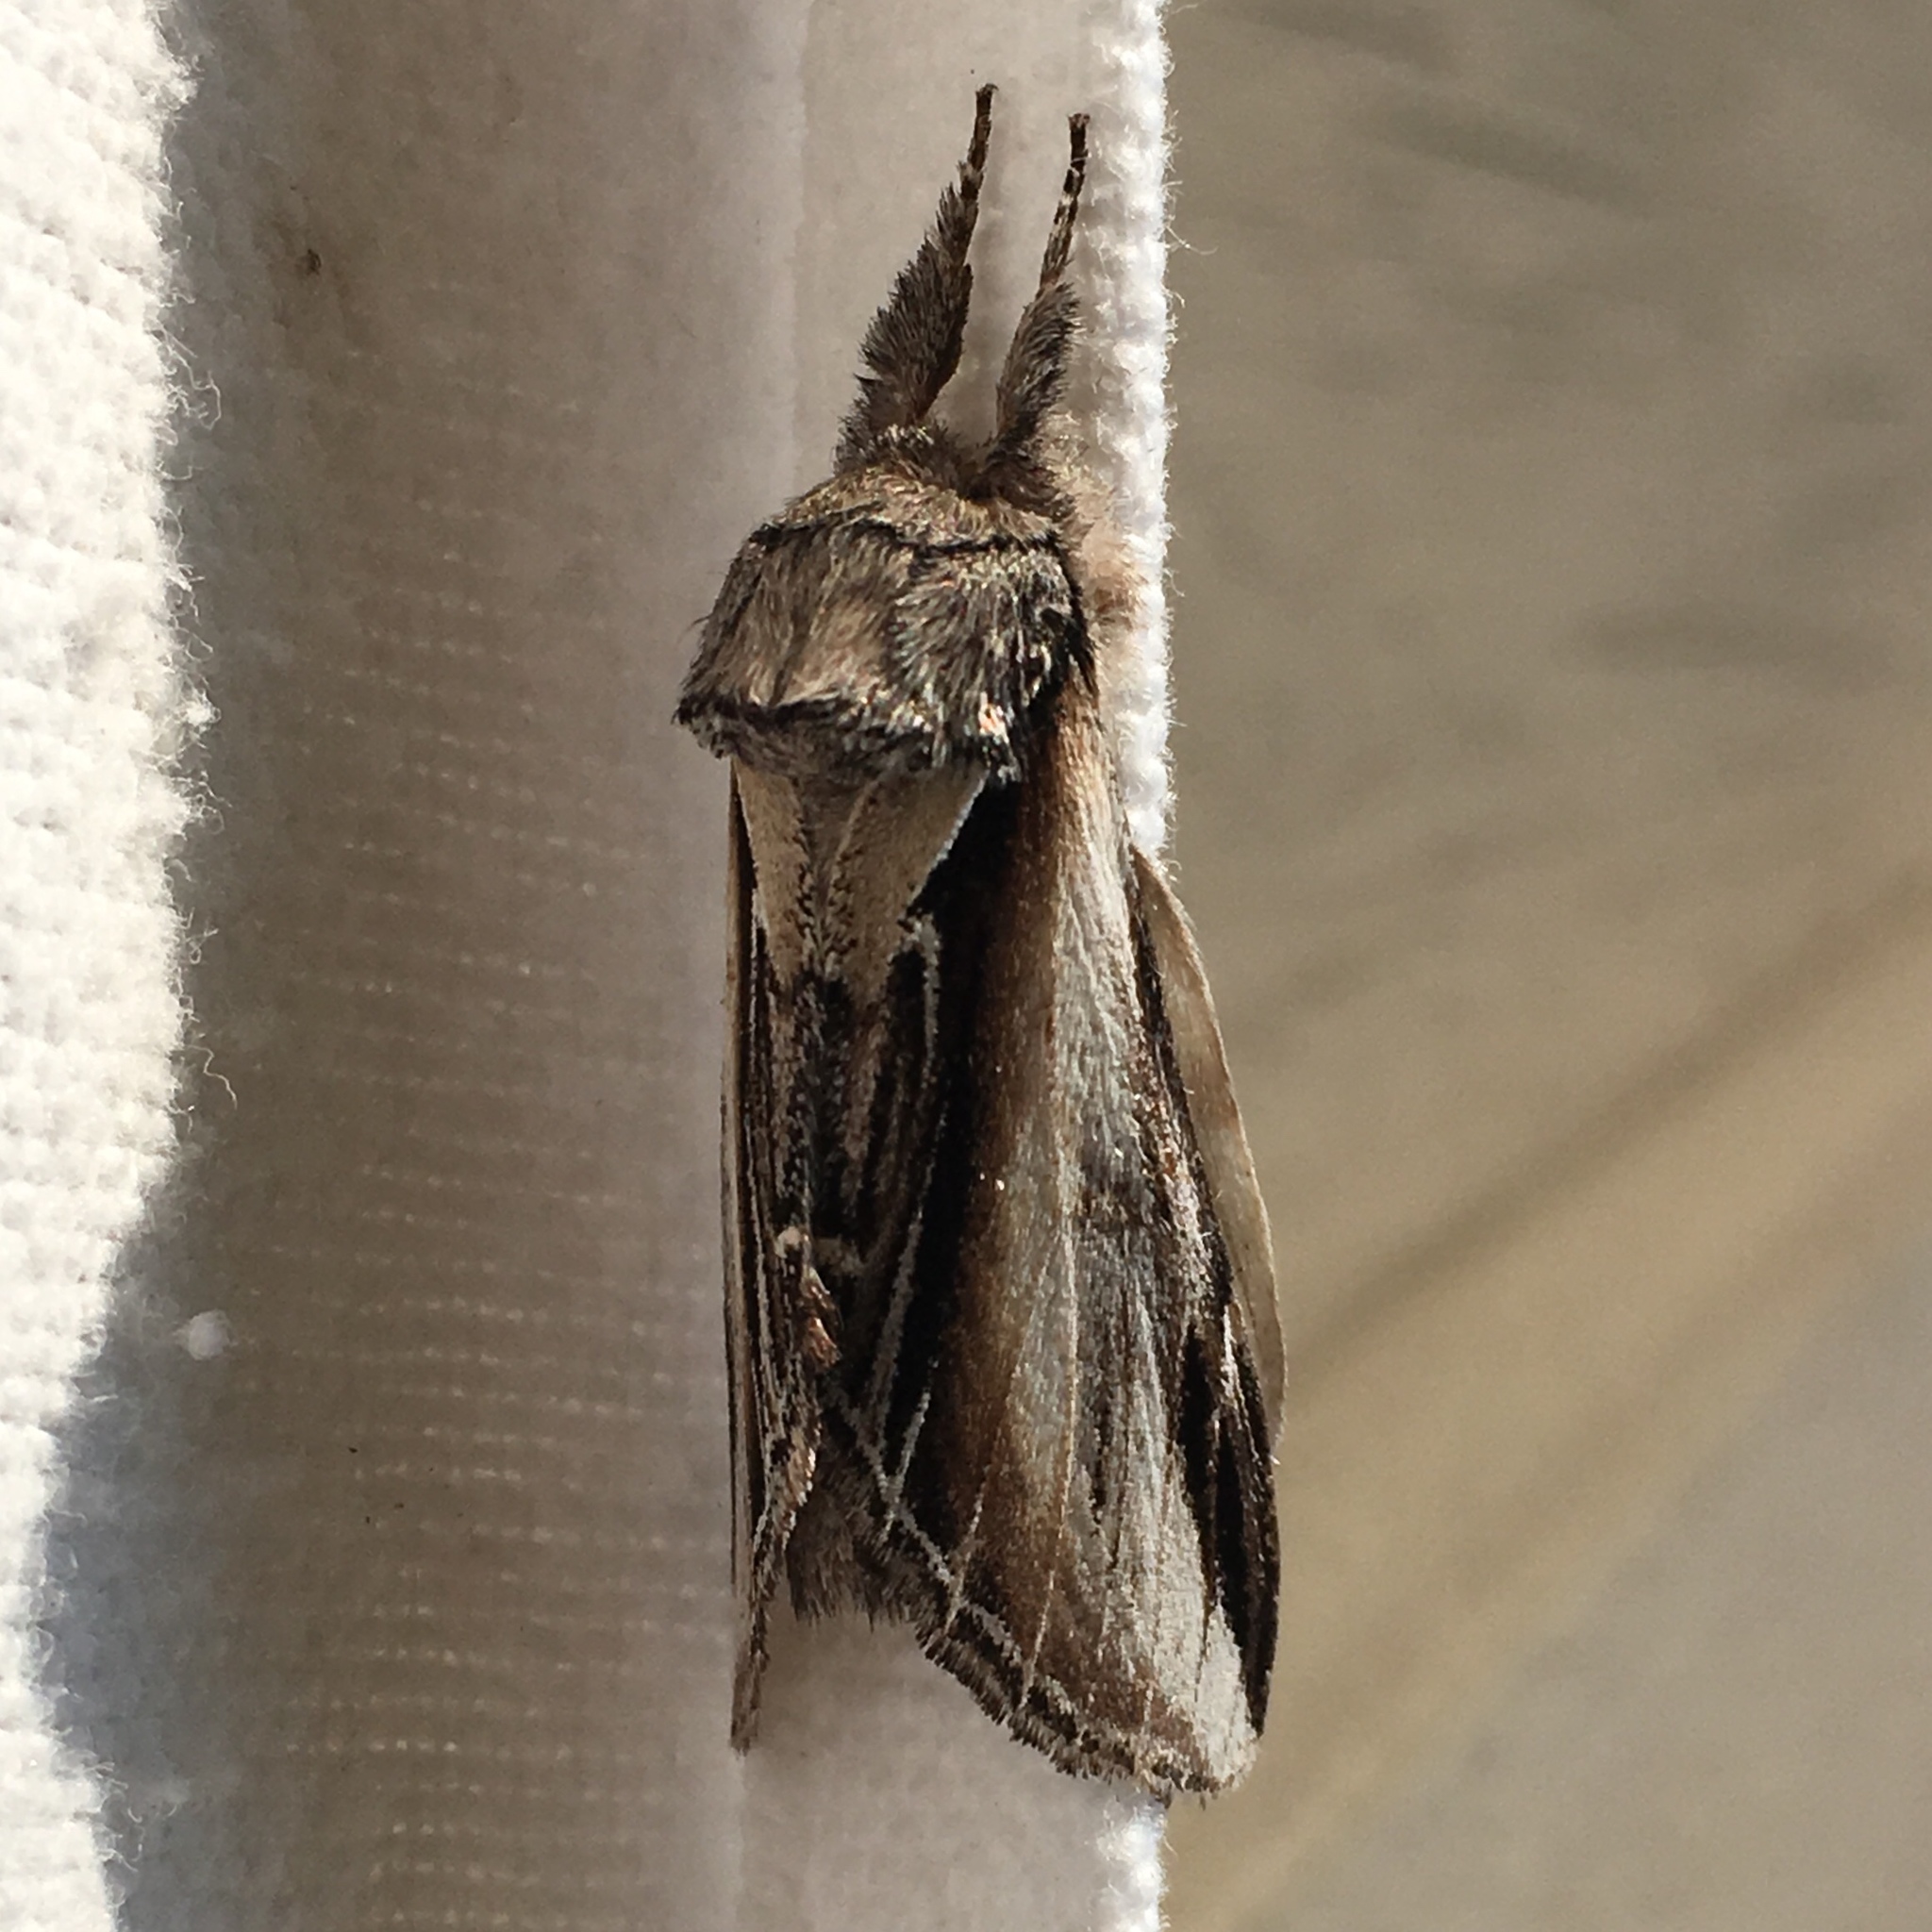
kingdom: Animalia
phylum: Arthropoda
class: Insecta
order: Lepidoptera
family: Notodontidae
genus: Pheosia
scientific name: Pheosia rimosa
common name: Black-rimmed prominent
